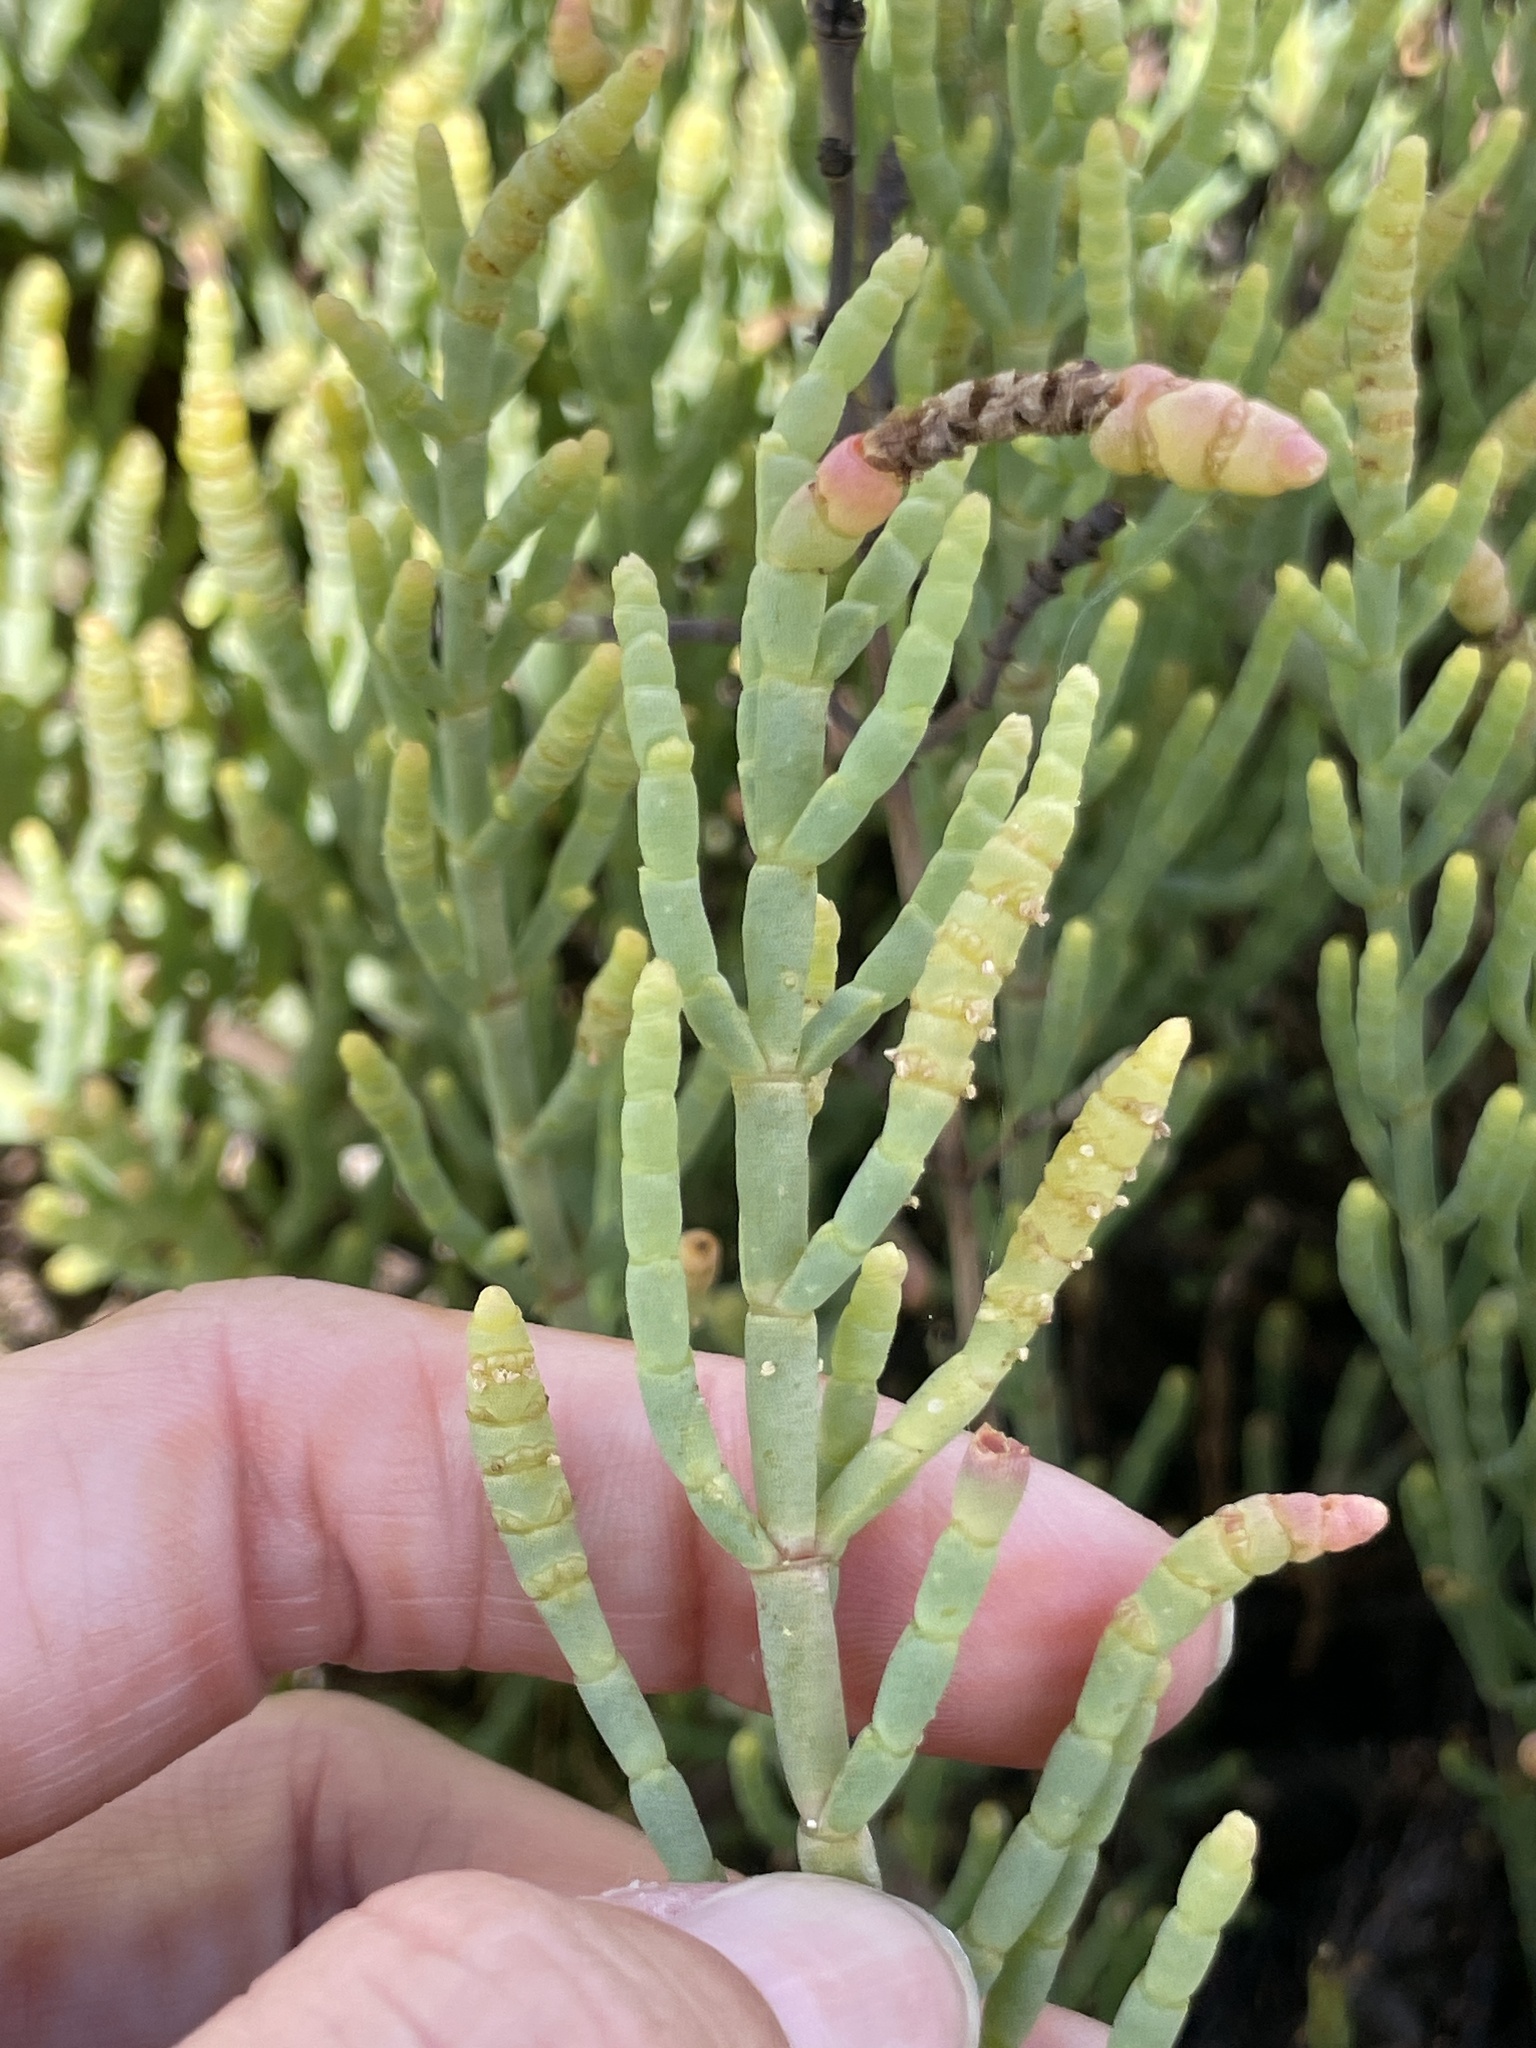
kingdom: Plantae
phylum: Tracheophyta
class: Magnoliopsida
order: Caryophyllales
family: Amaranthaceae
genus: Arthroceras
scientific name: Arthroceras subterminale
